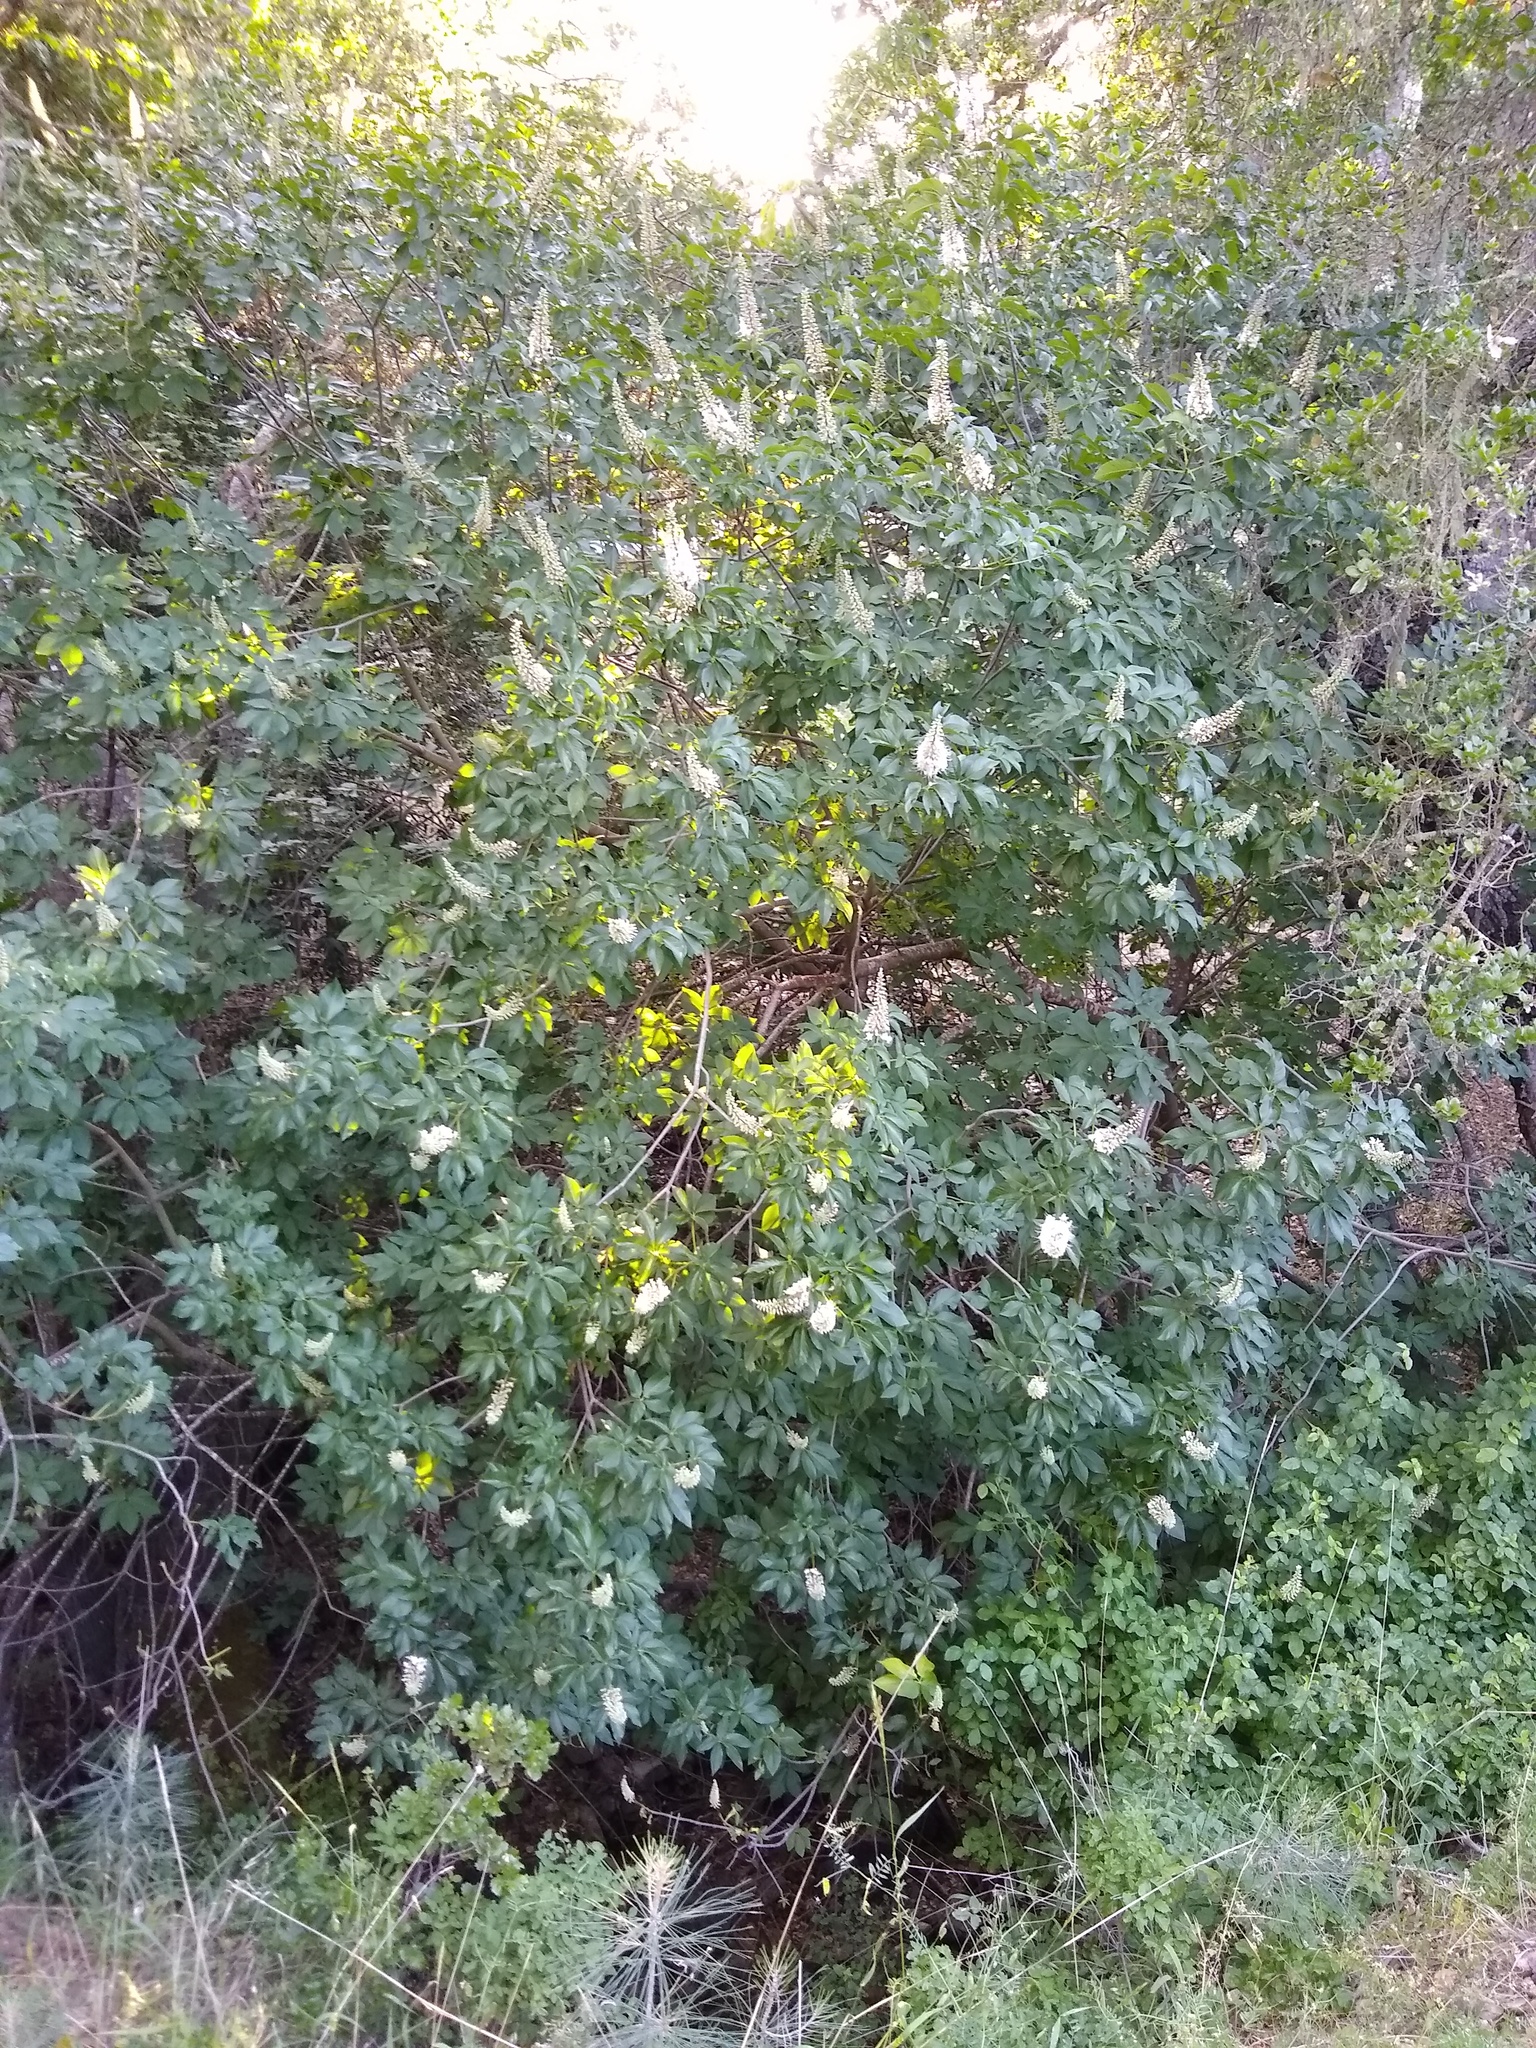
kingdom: Plantae
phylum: Tracheophyta
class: Magnoliopsida
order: Sapindales
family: Sapindaceae
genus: Aesculus
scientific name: Aesculus californica
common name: California buckeye
